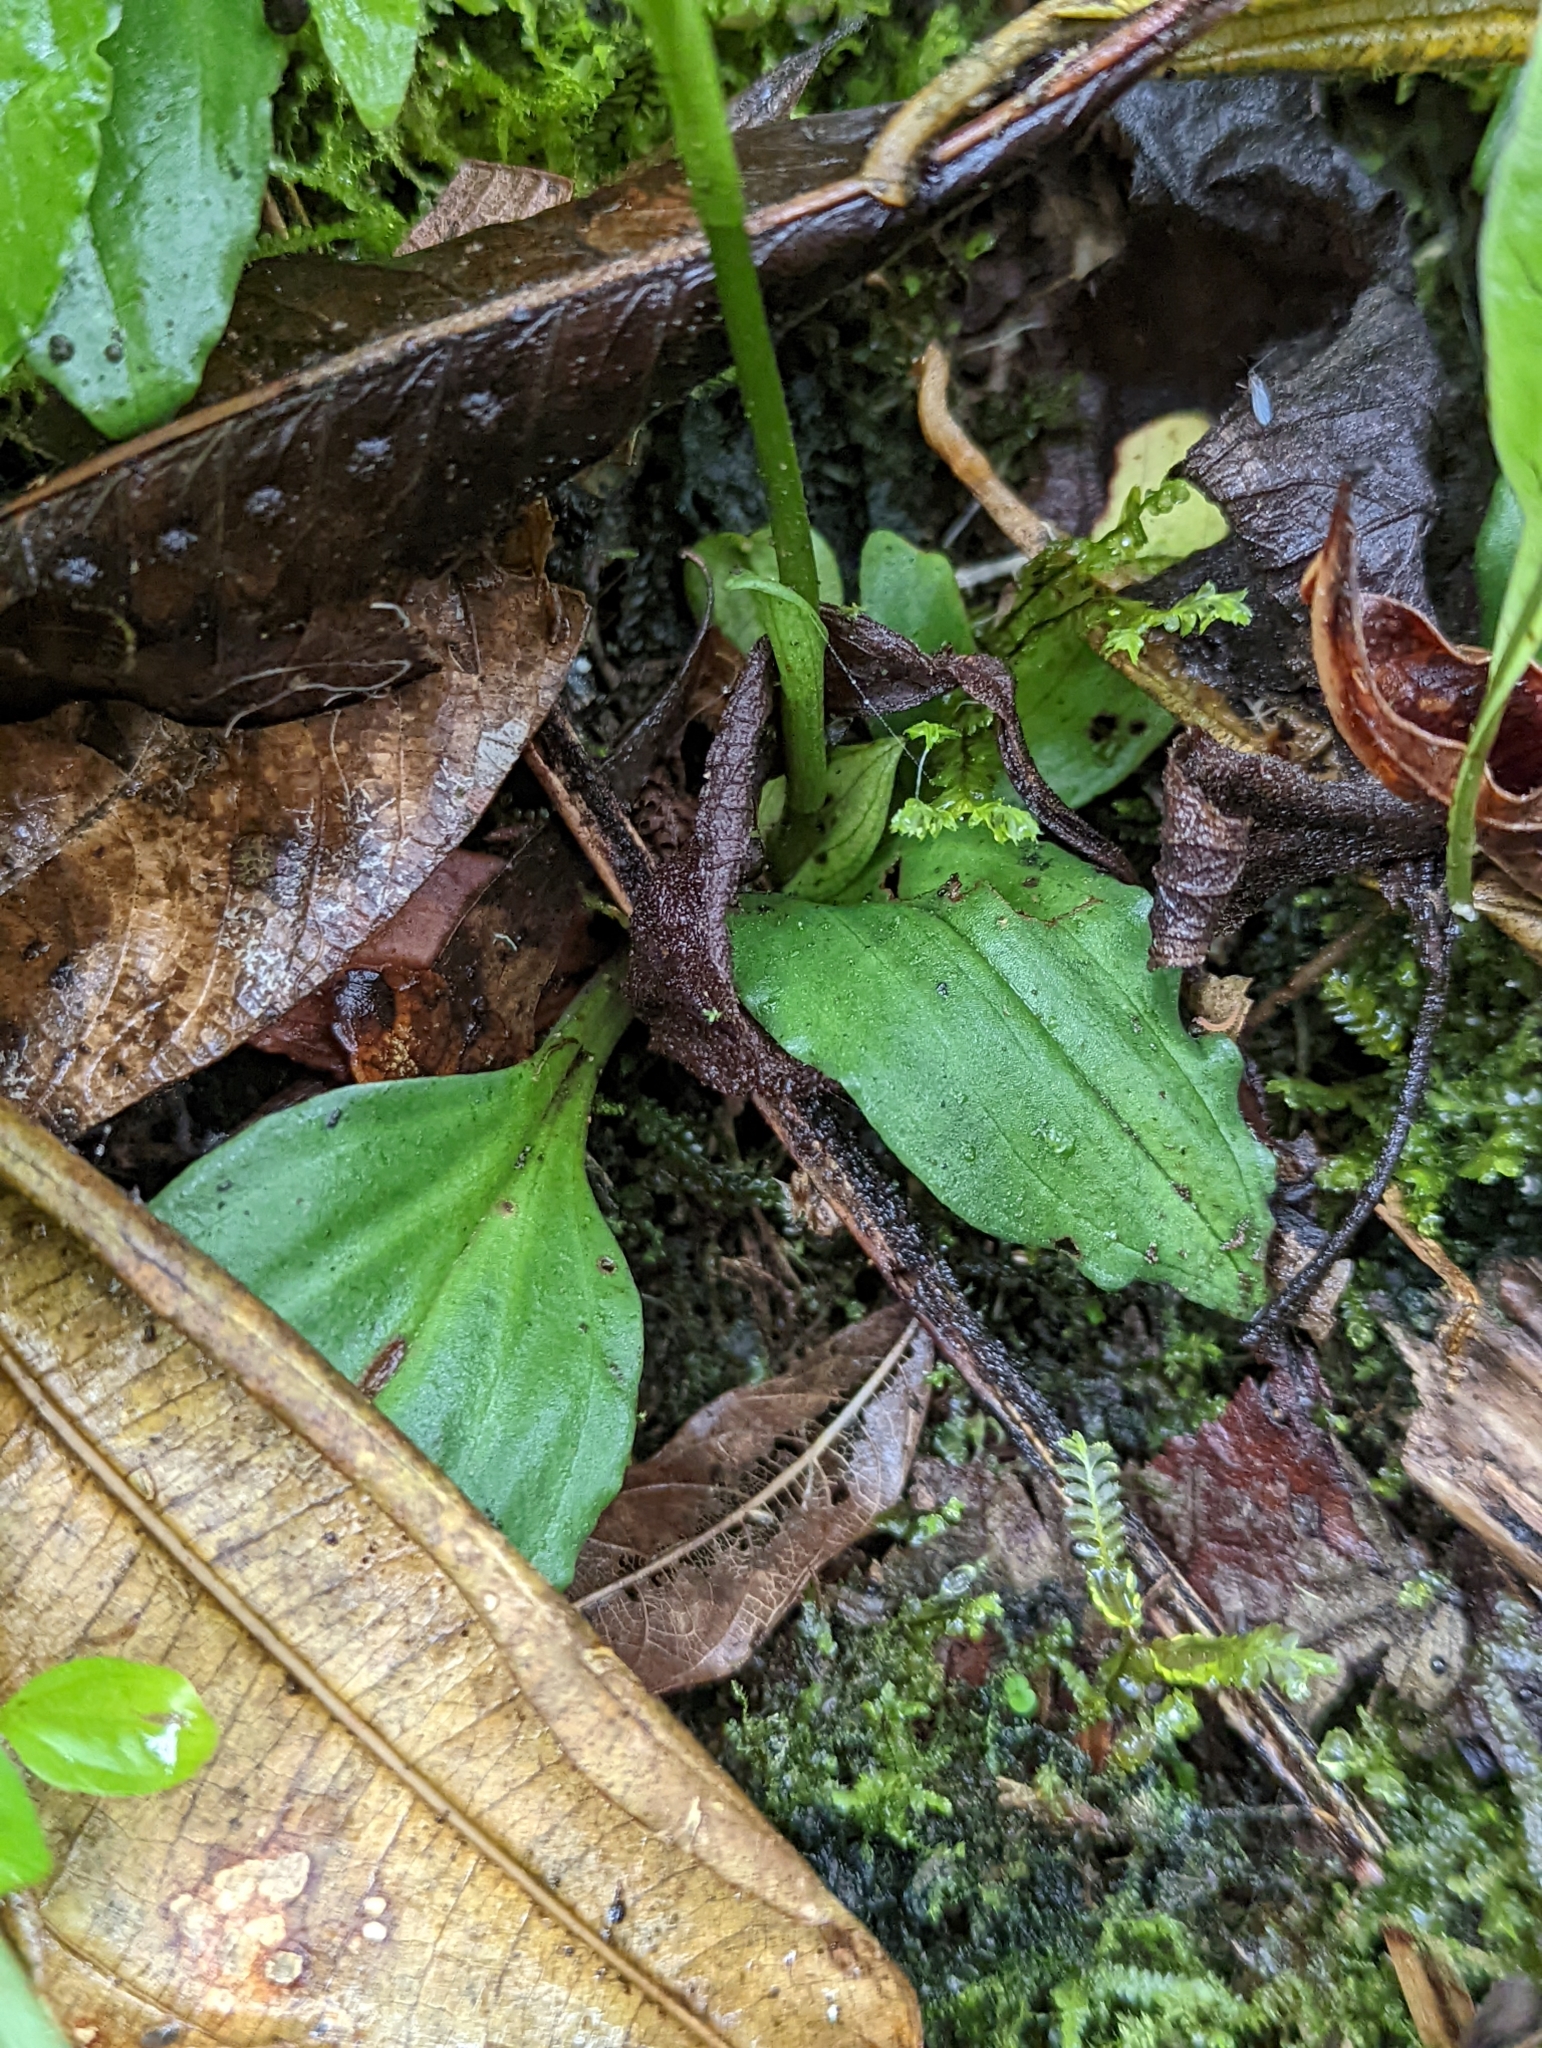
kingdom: Plantae
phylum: Tracheophyta
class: Liliopsida
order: Asparagales
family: Orchidaceae
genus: Ponthieva
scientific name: Ponthieva pseudoracemosa
